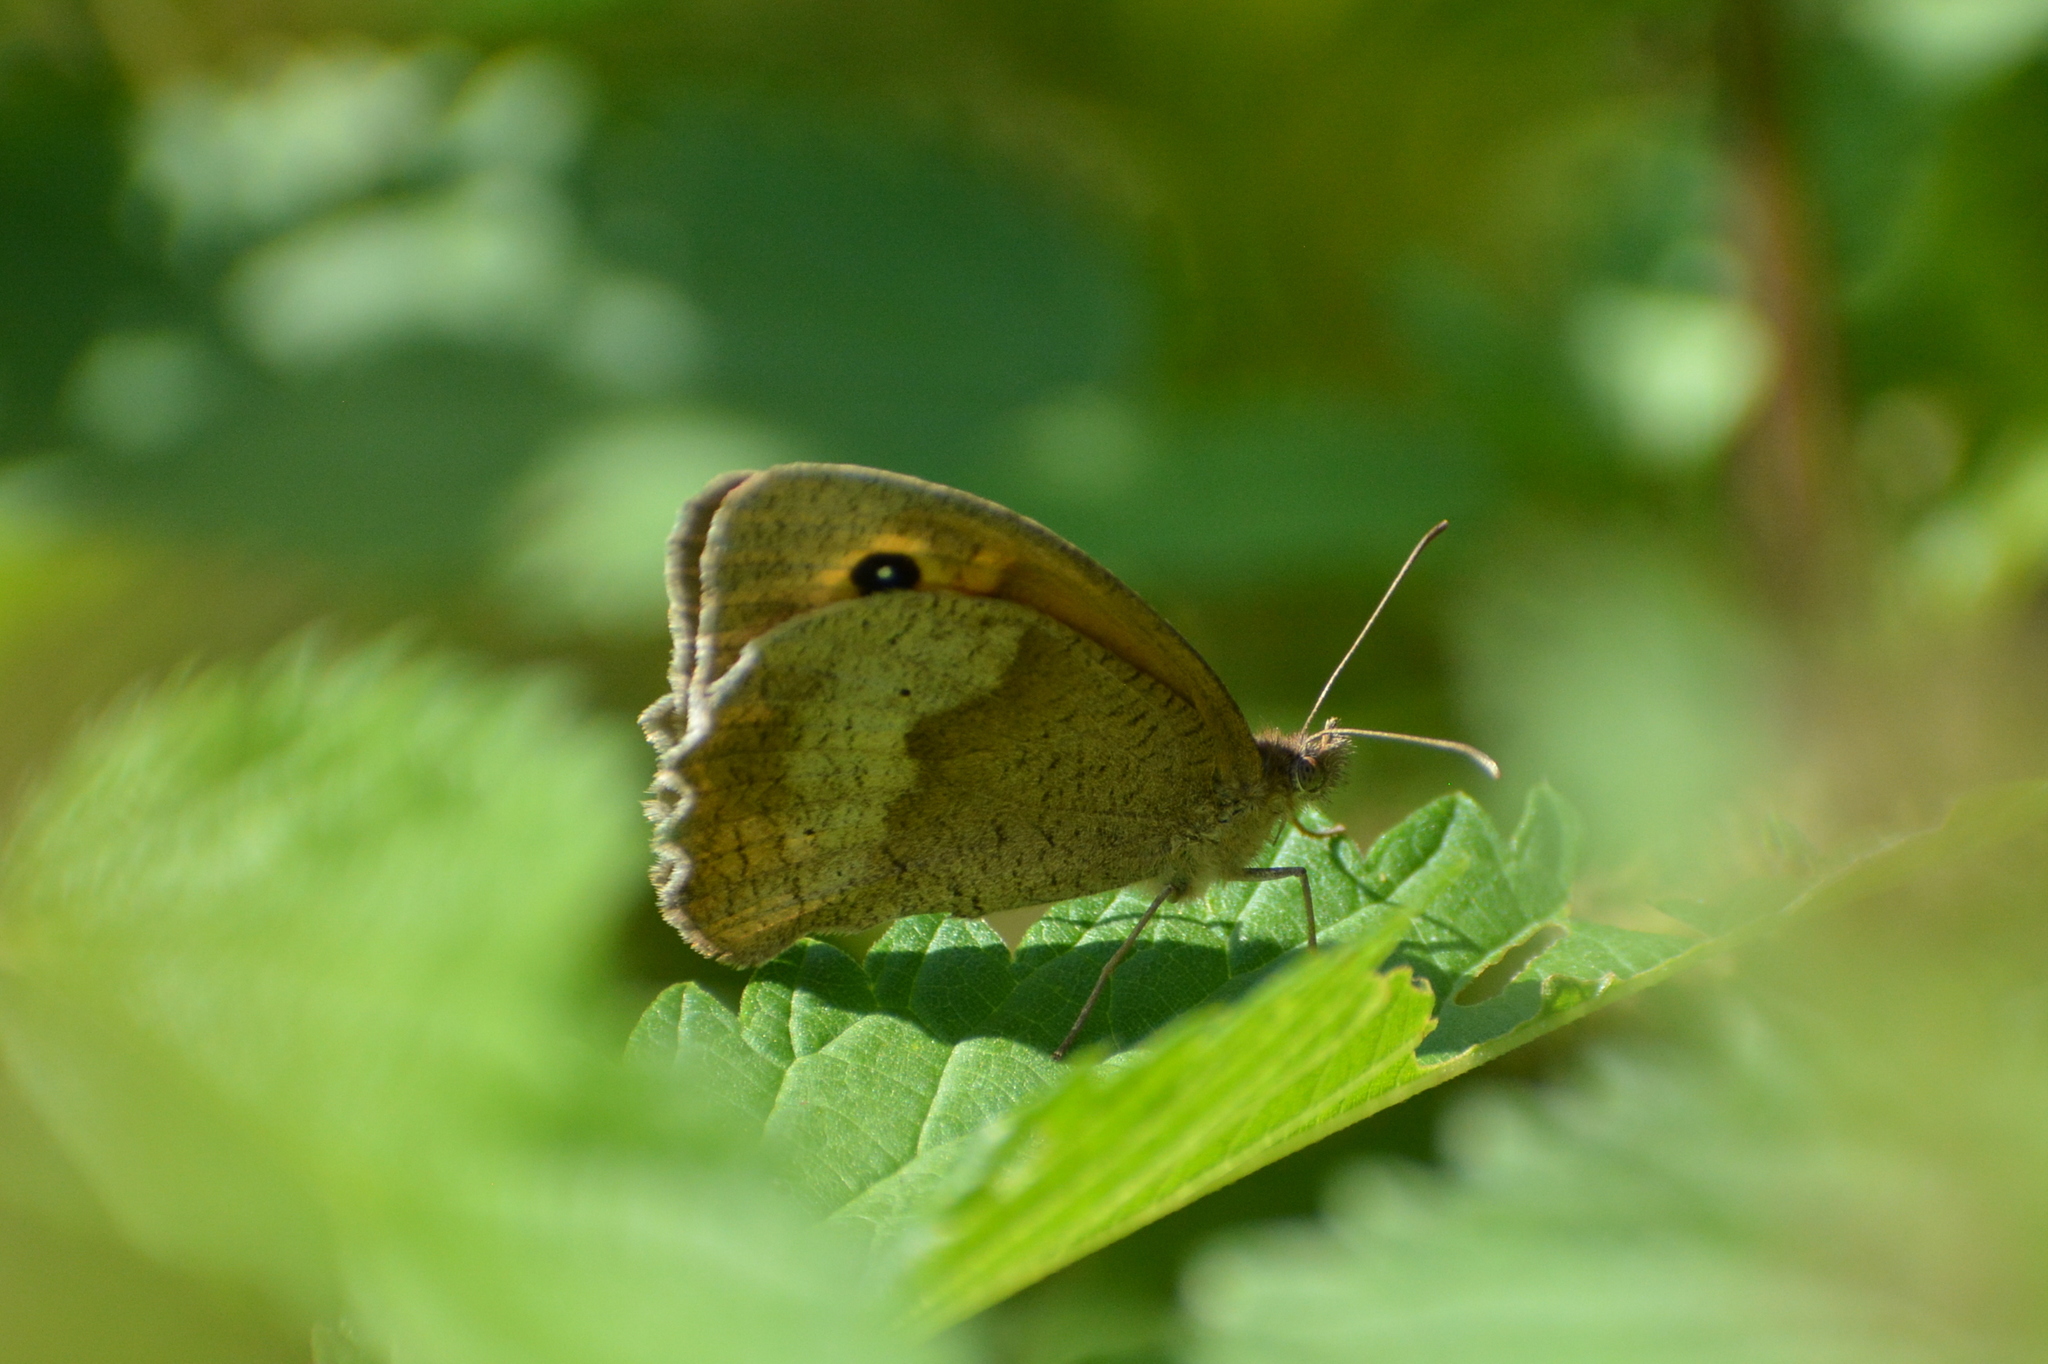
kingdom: Animalia
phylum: Arthropoda
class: Insecta
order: Lepidoptera
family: Nymphalidae
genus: Maniola
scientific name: Maniola jurtina
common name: Meadow brown
